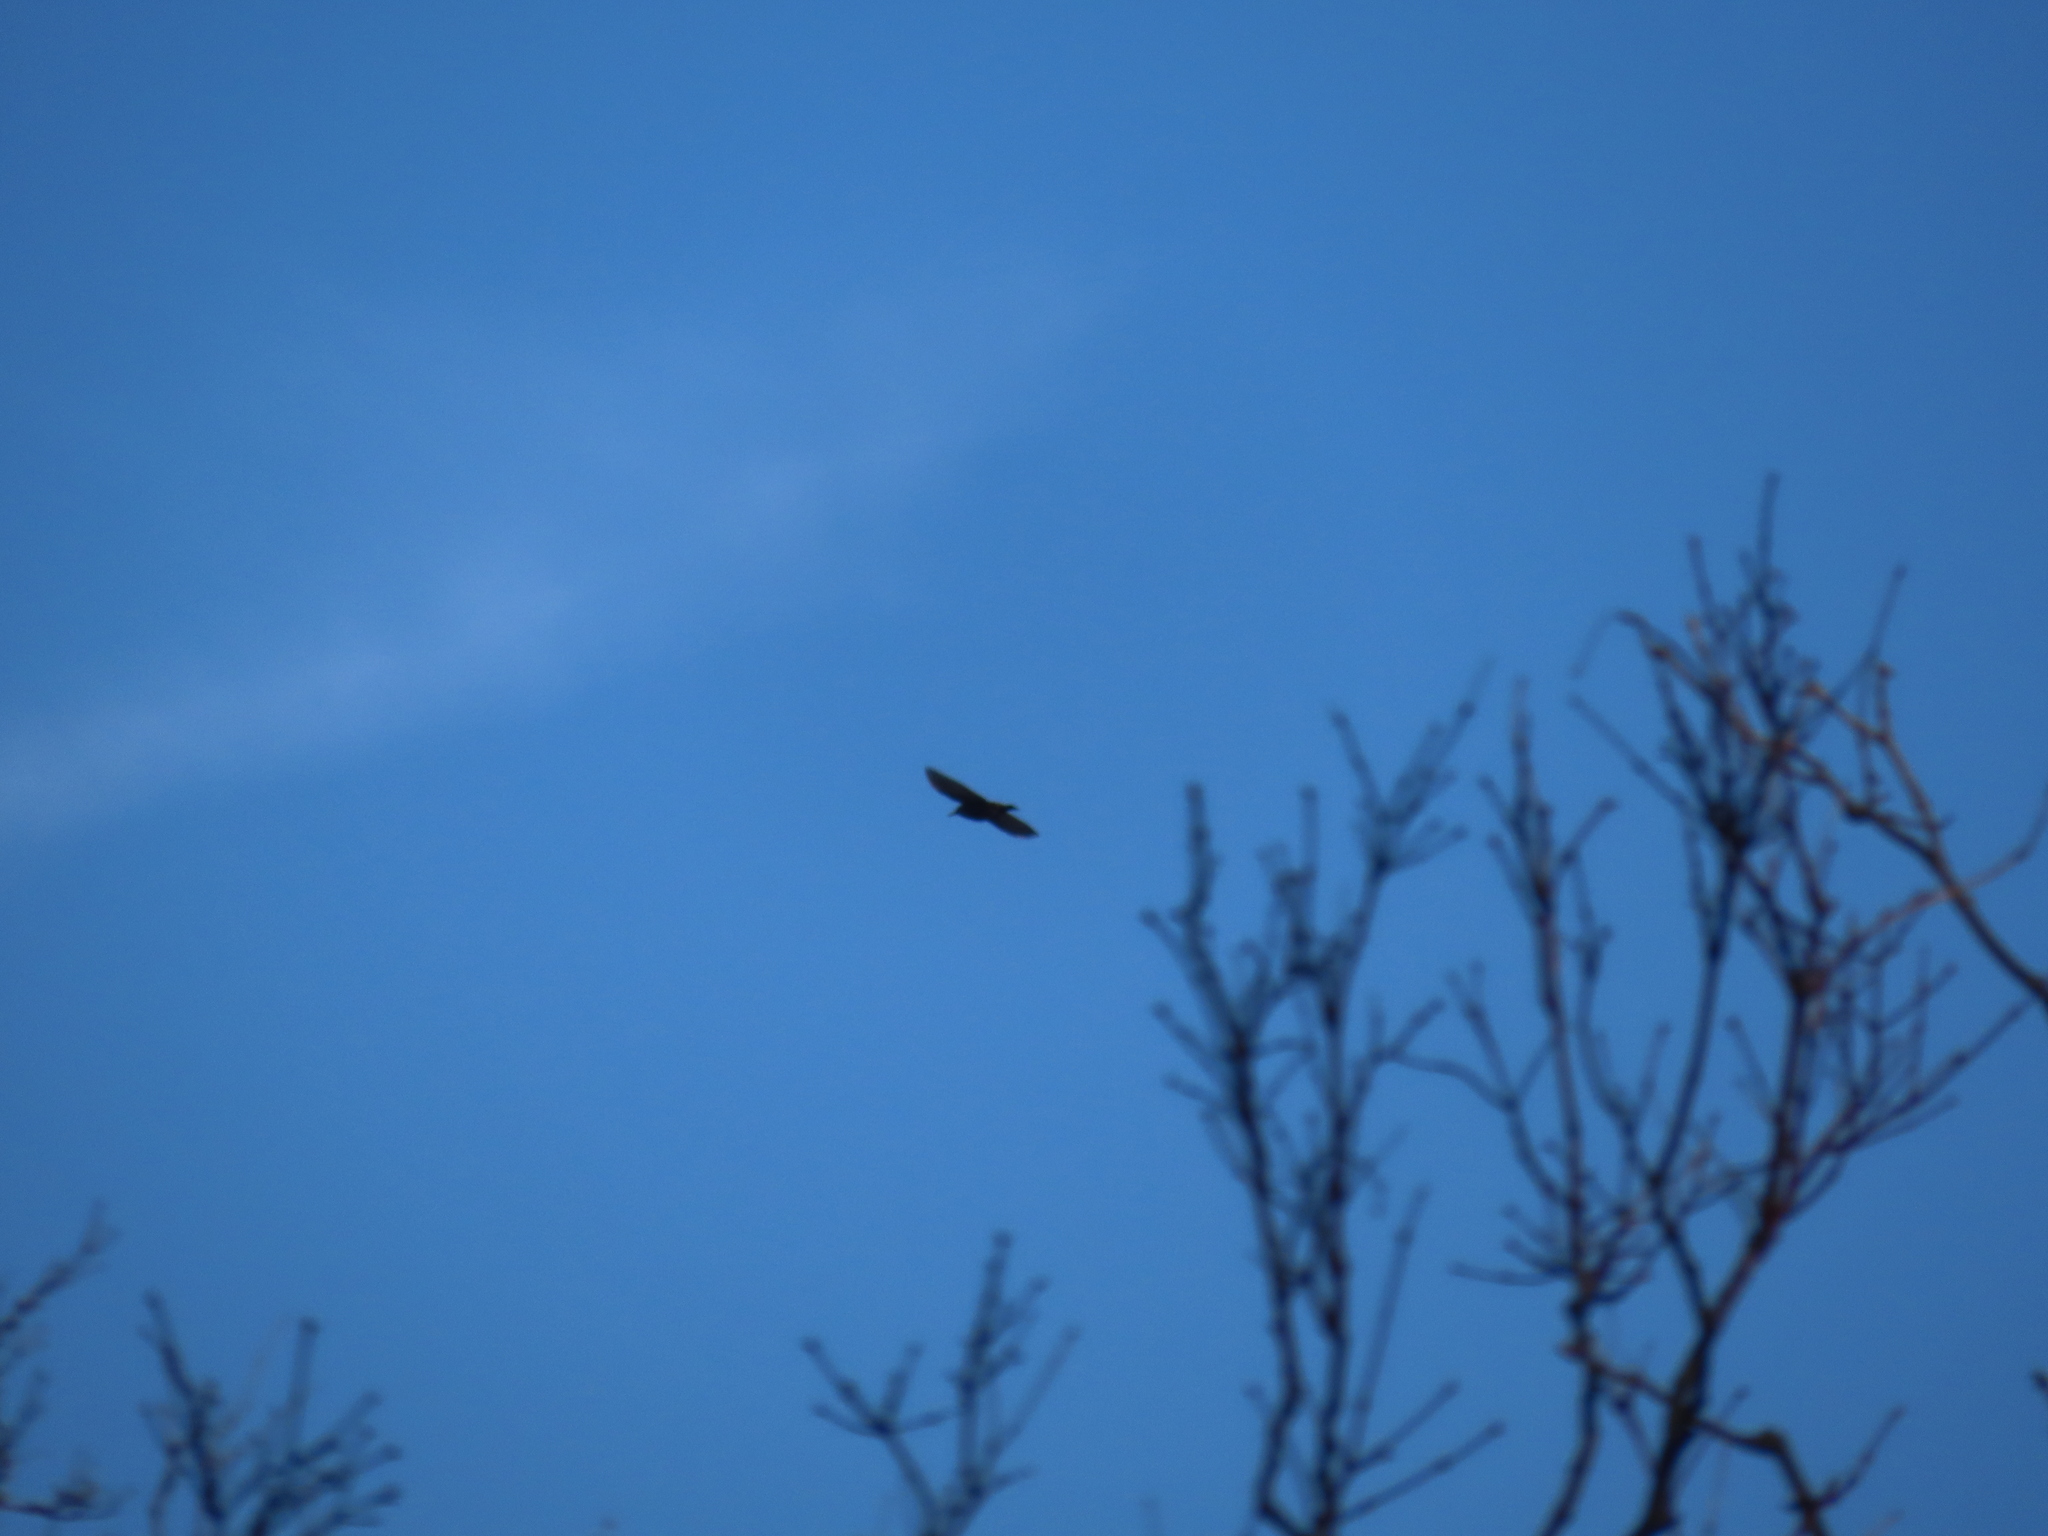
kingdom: Animalia
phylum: Chordata
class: Aves
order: Passeriformes
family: Sturnidae
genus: Sturnus
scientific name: Sturnus vulgaris
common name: Common starling
